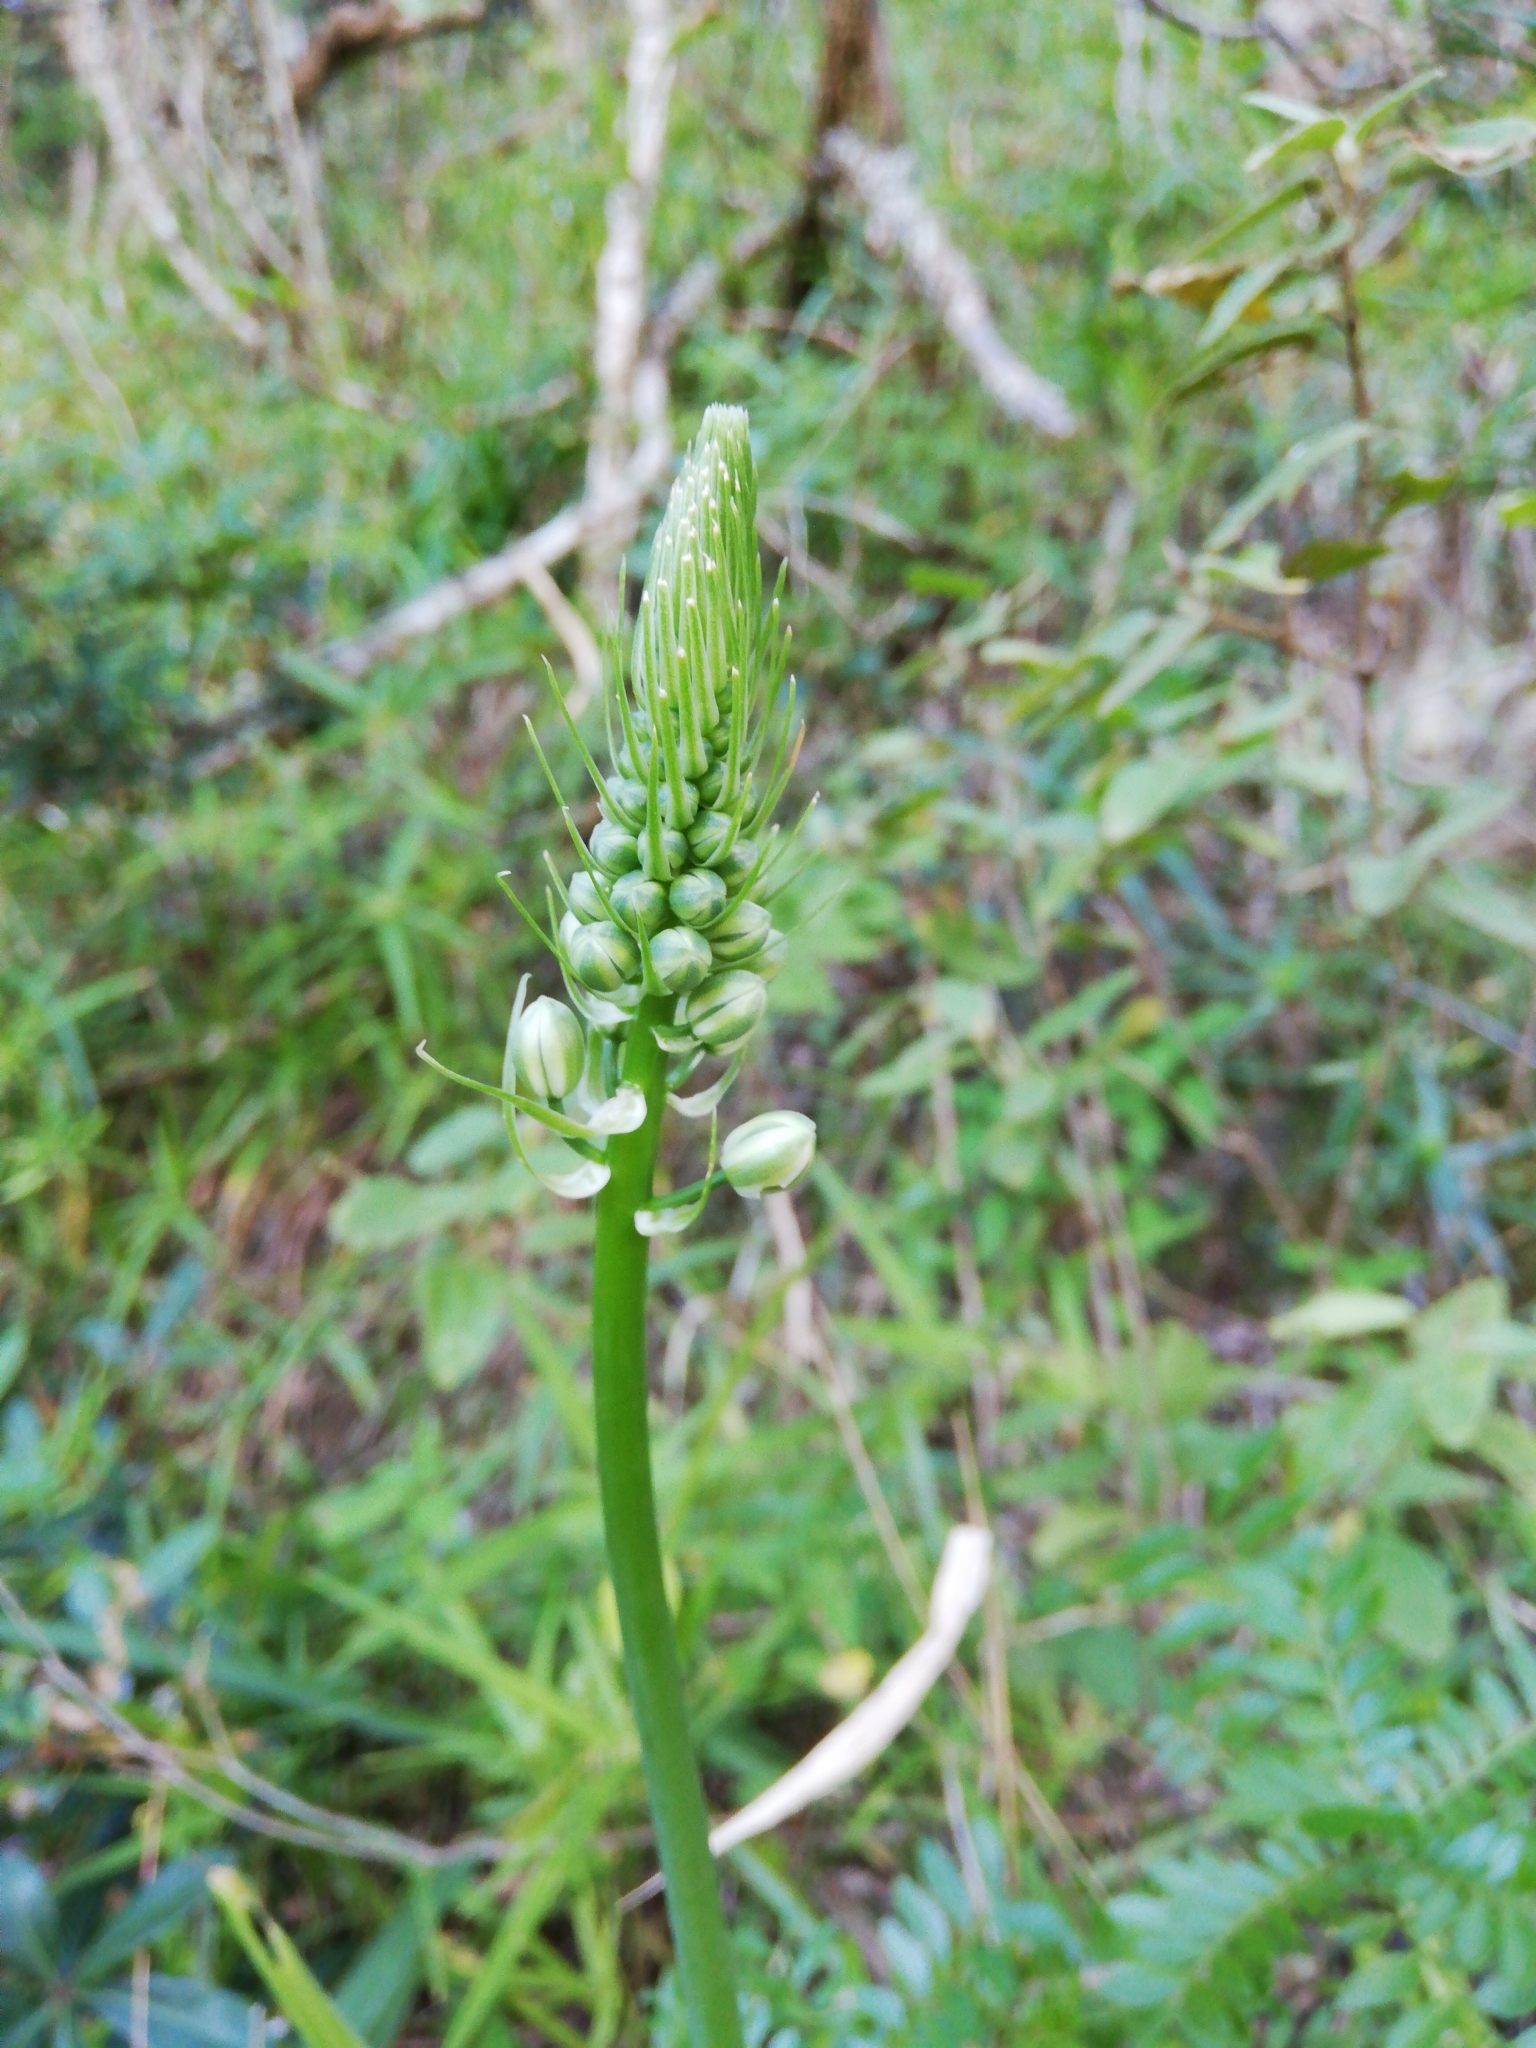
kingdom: Plantae
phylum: Tracheophyta
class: Liliopsida
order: Asparagales
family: Asparagaceae
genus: Albuca
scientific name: Albuca bracteata
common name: Sea-onion
